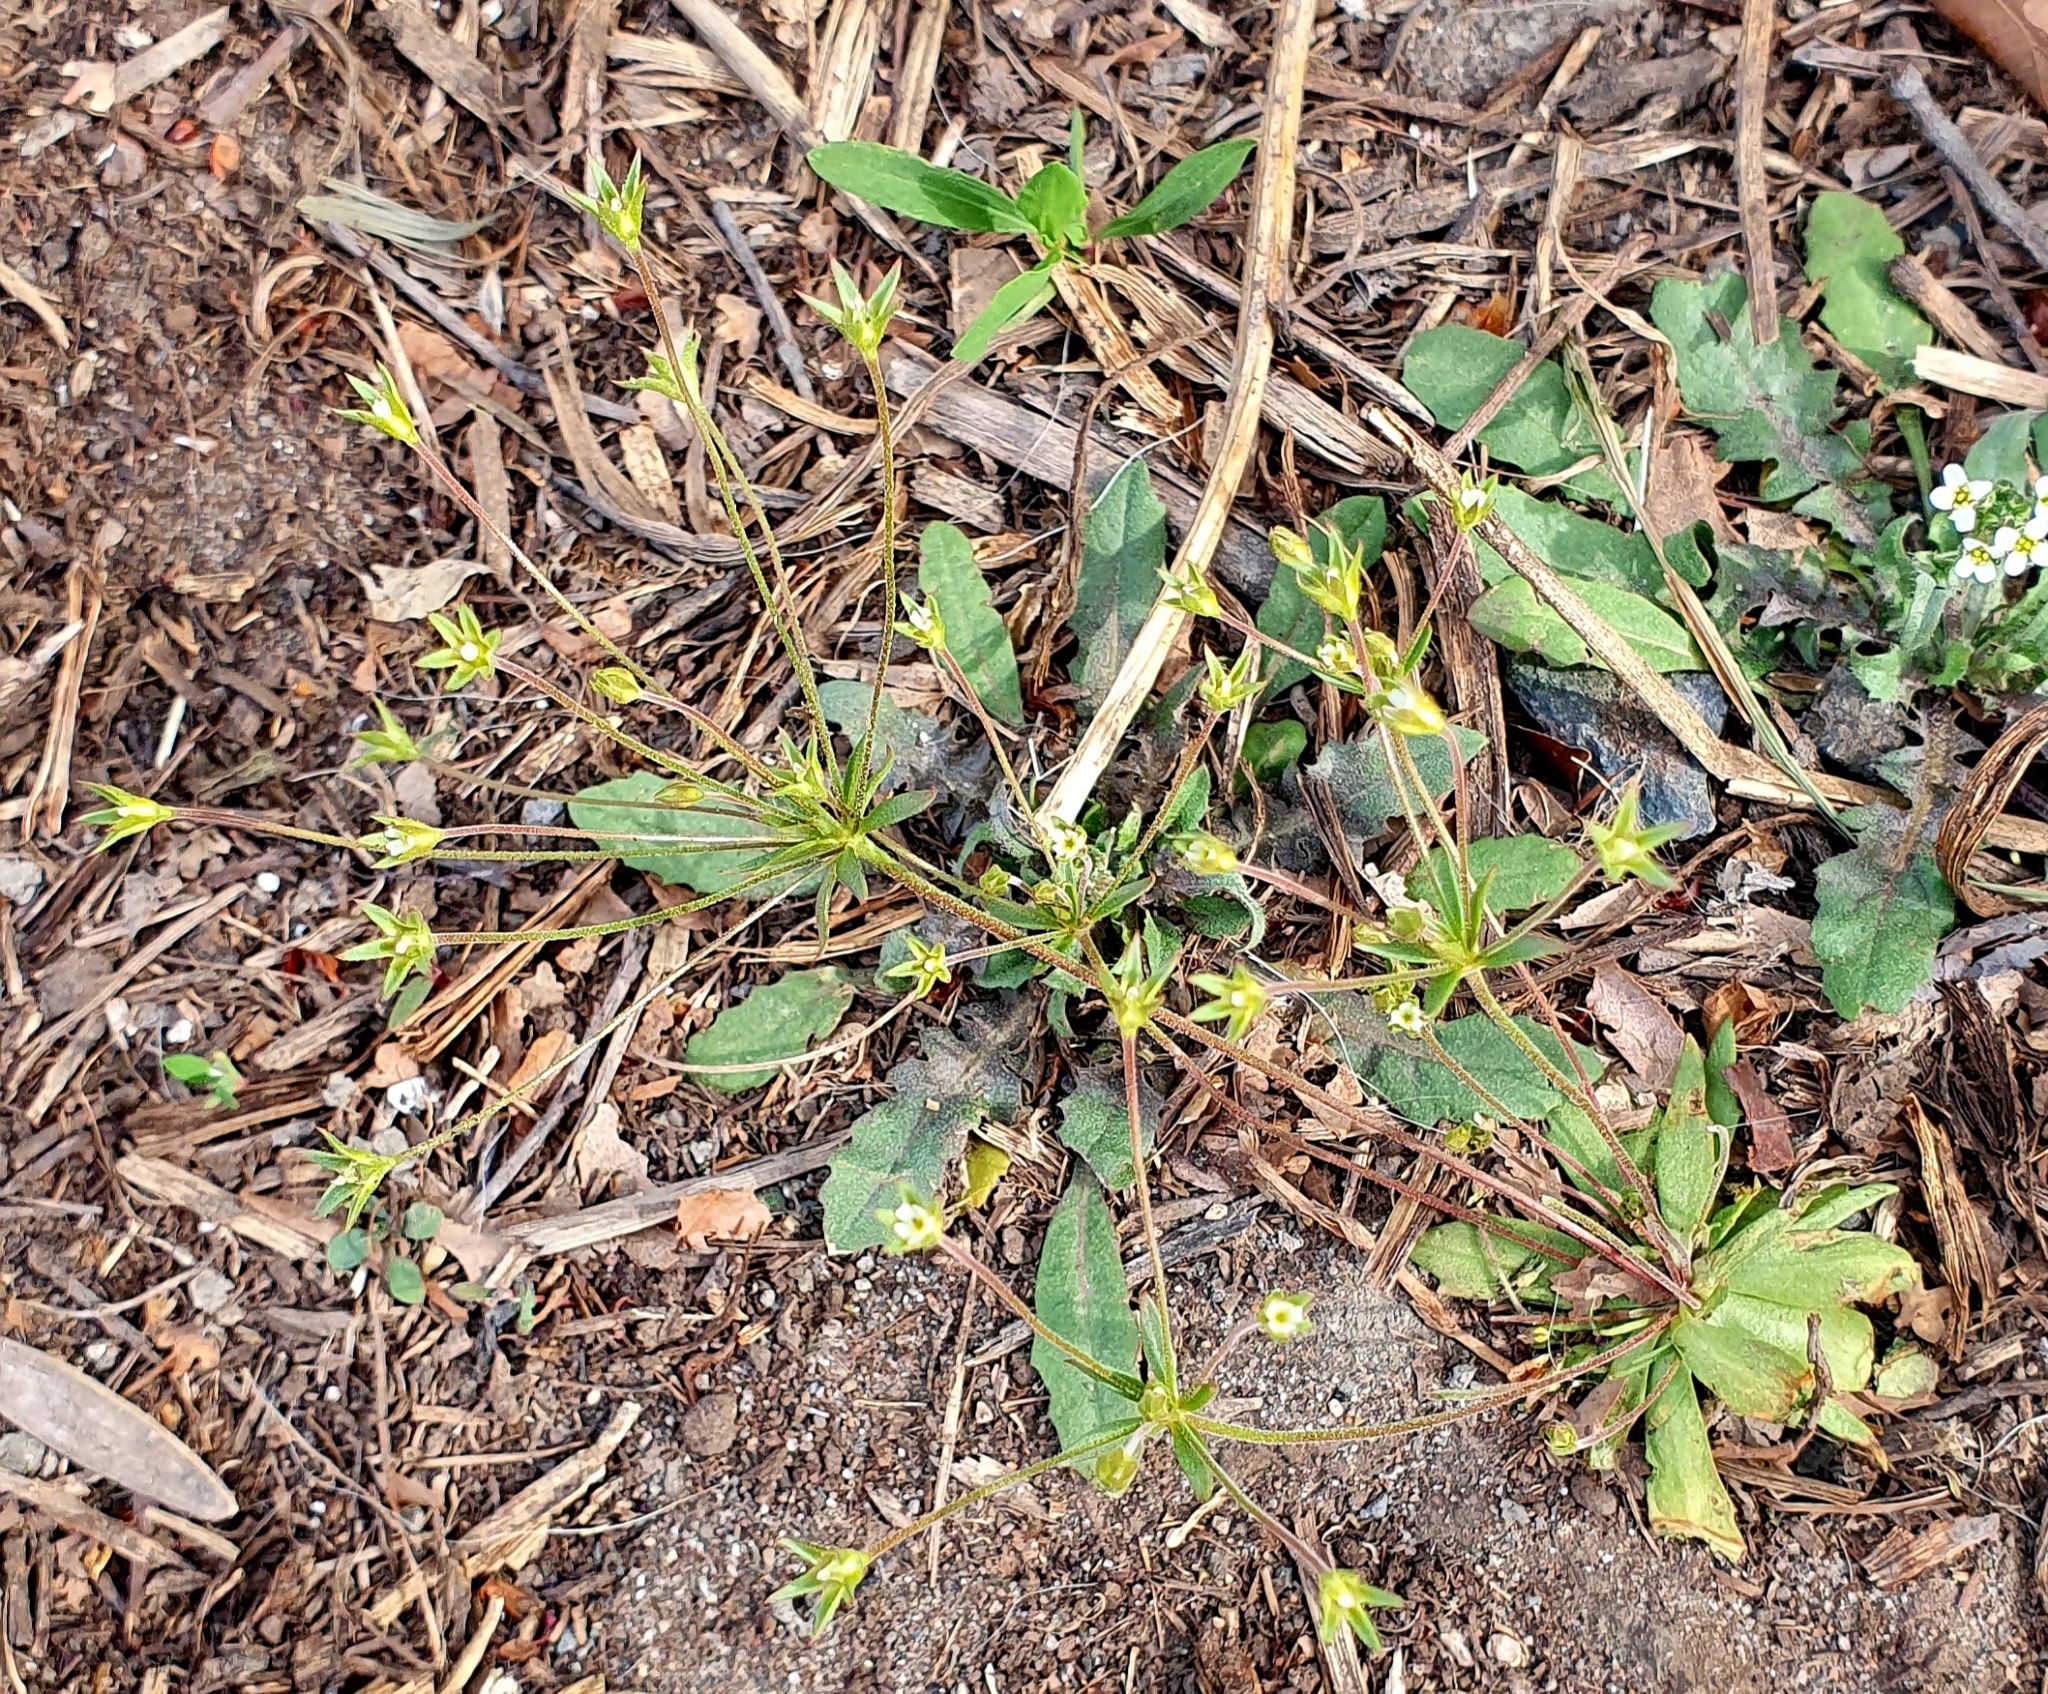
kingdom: Plantae
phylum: Tracheophyta
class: Magnoliopsida
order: Ericales
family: Primulaceae
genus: Androsace
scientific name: Androsace elongata
